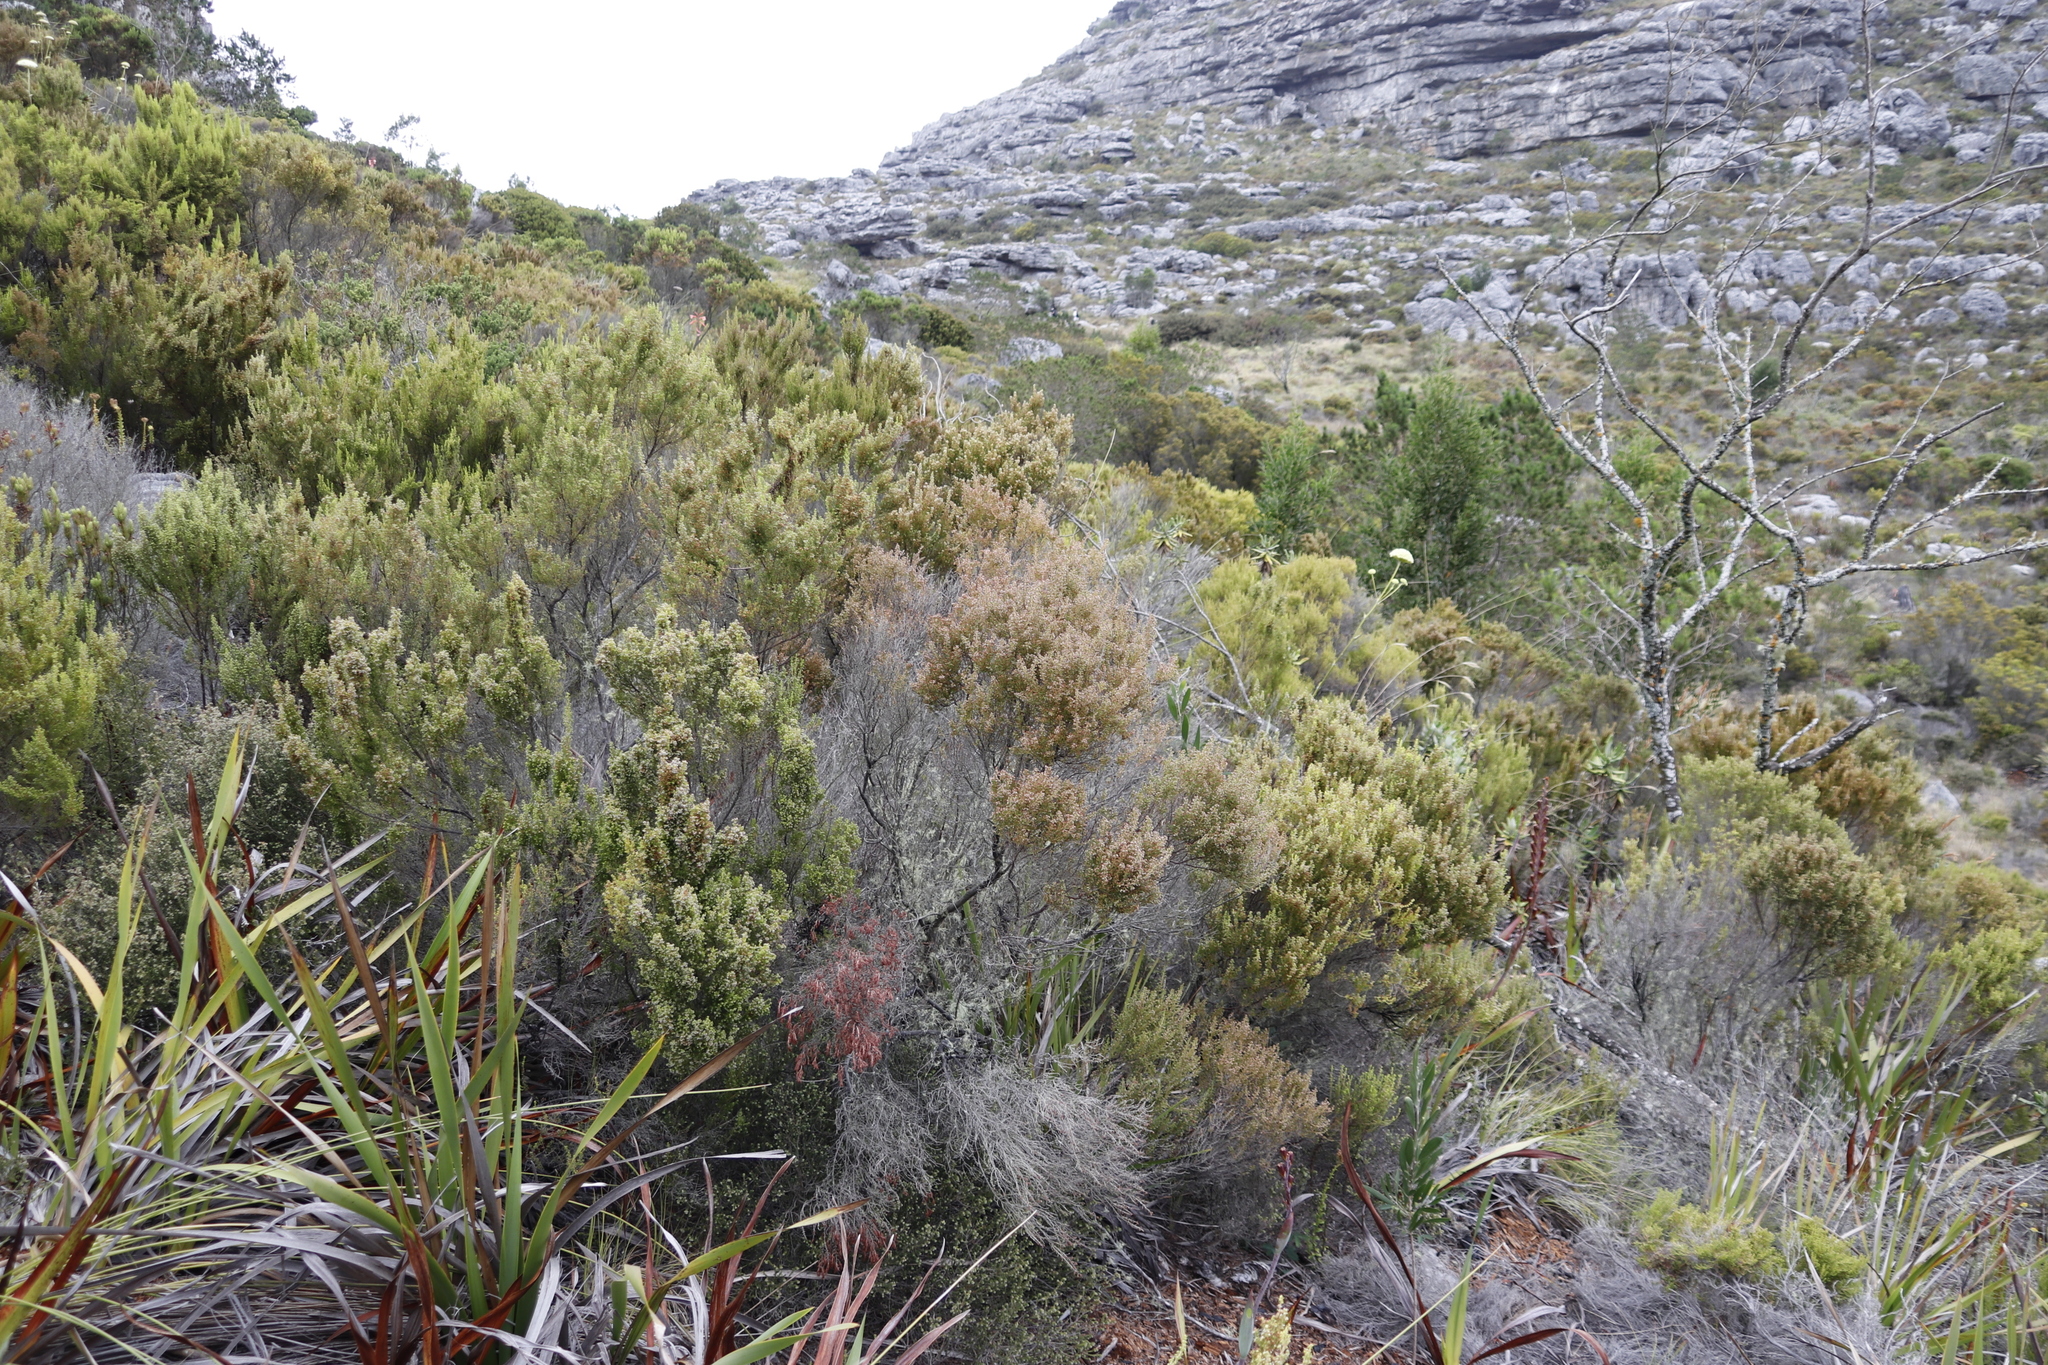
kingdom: Plantae
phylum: Tracheophyta
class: Magnoliopsida
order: Ericales
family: Ericaceae
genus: Erica
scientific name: Erica hispidula
